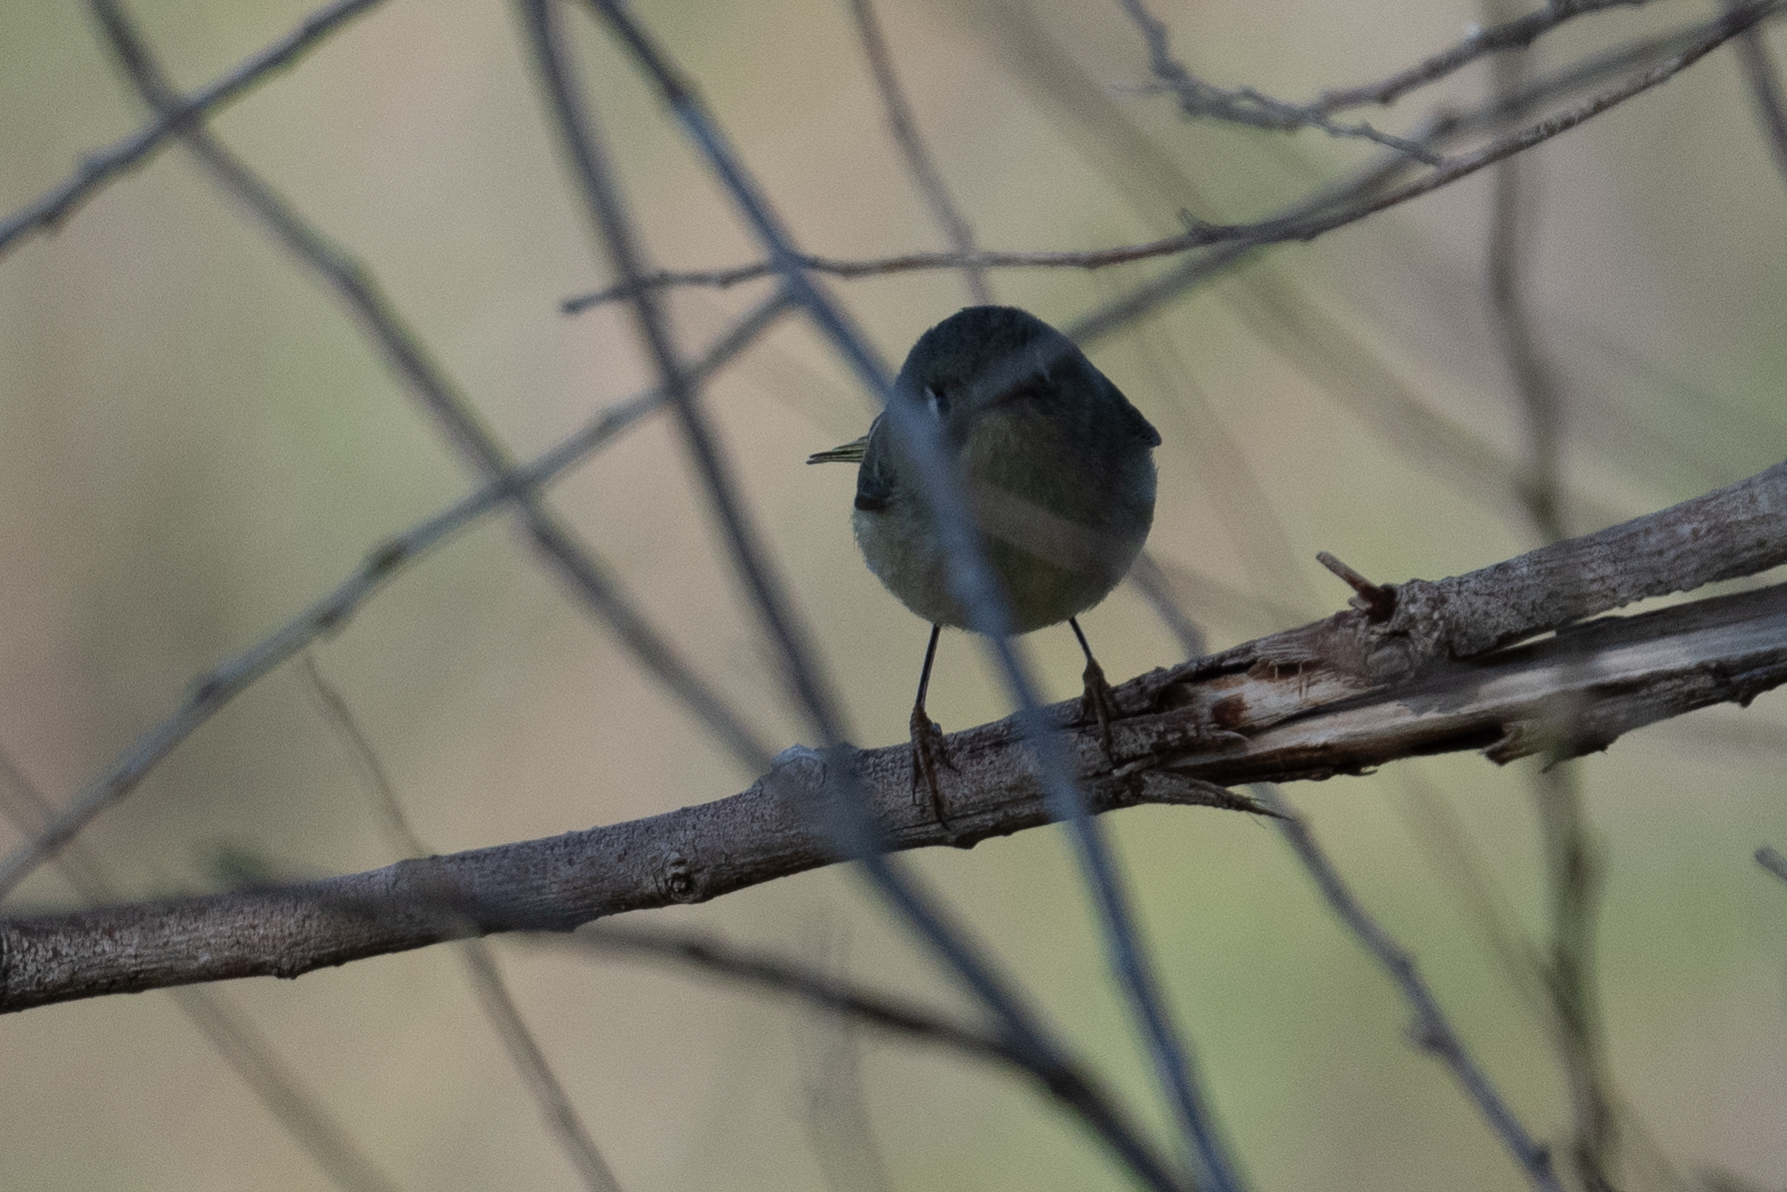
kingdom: Animalia
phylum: Chordata
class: Aves
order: Passeriformes
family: Regulidae
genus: Regulus
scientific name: Regulus calendula
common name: Ruby-crowned kinglet
